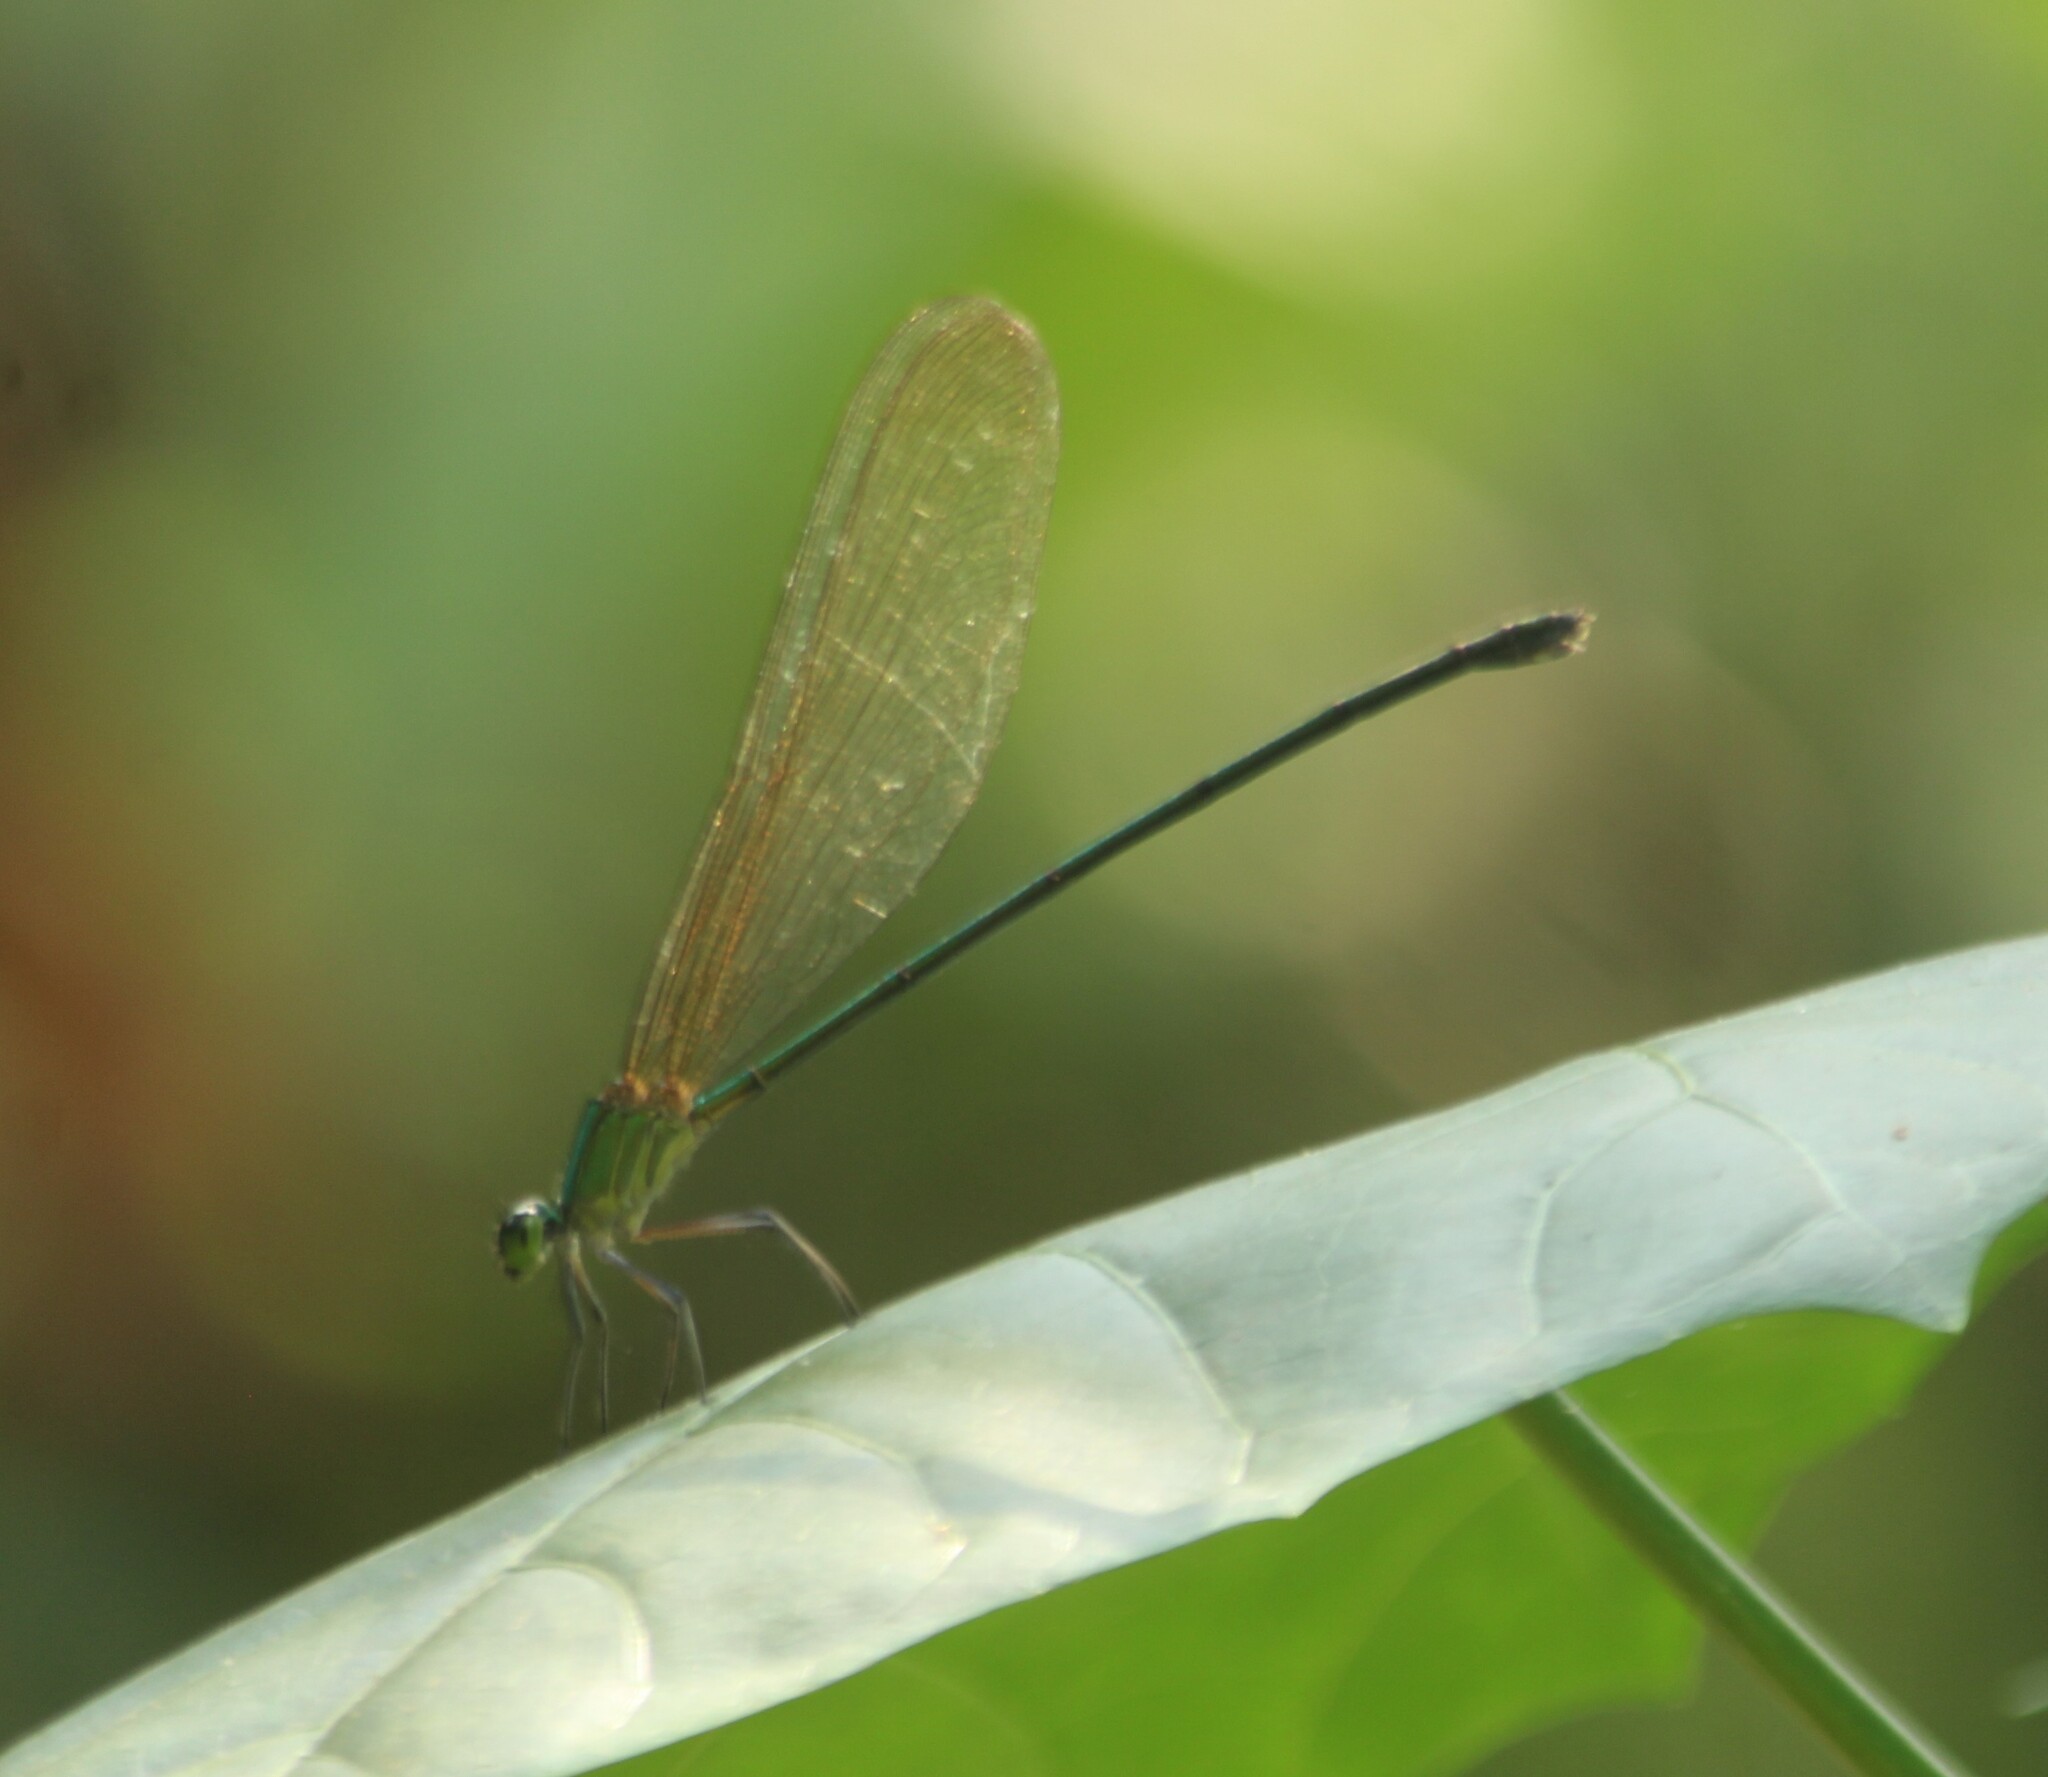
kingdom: Animalia
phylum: Arthropoda
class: Insecta
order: Odonata
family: Calopterygidae
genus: Vestalis
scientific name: Vestalis gracilis
